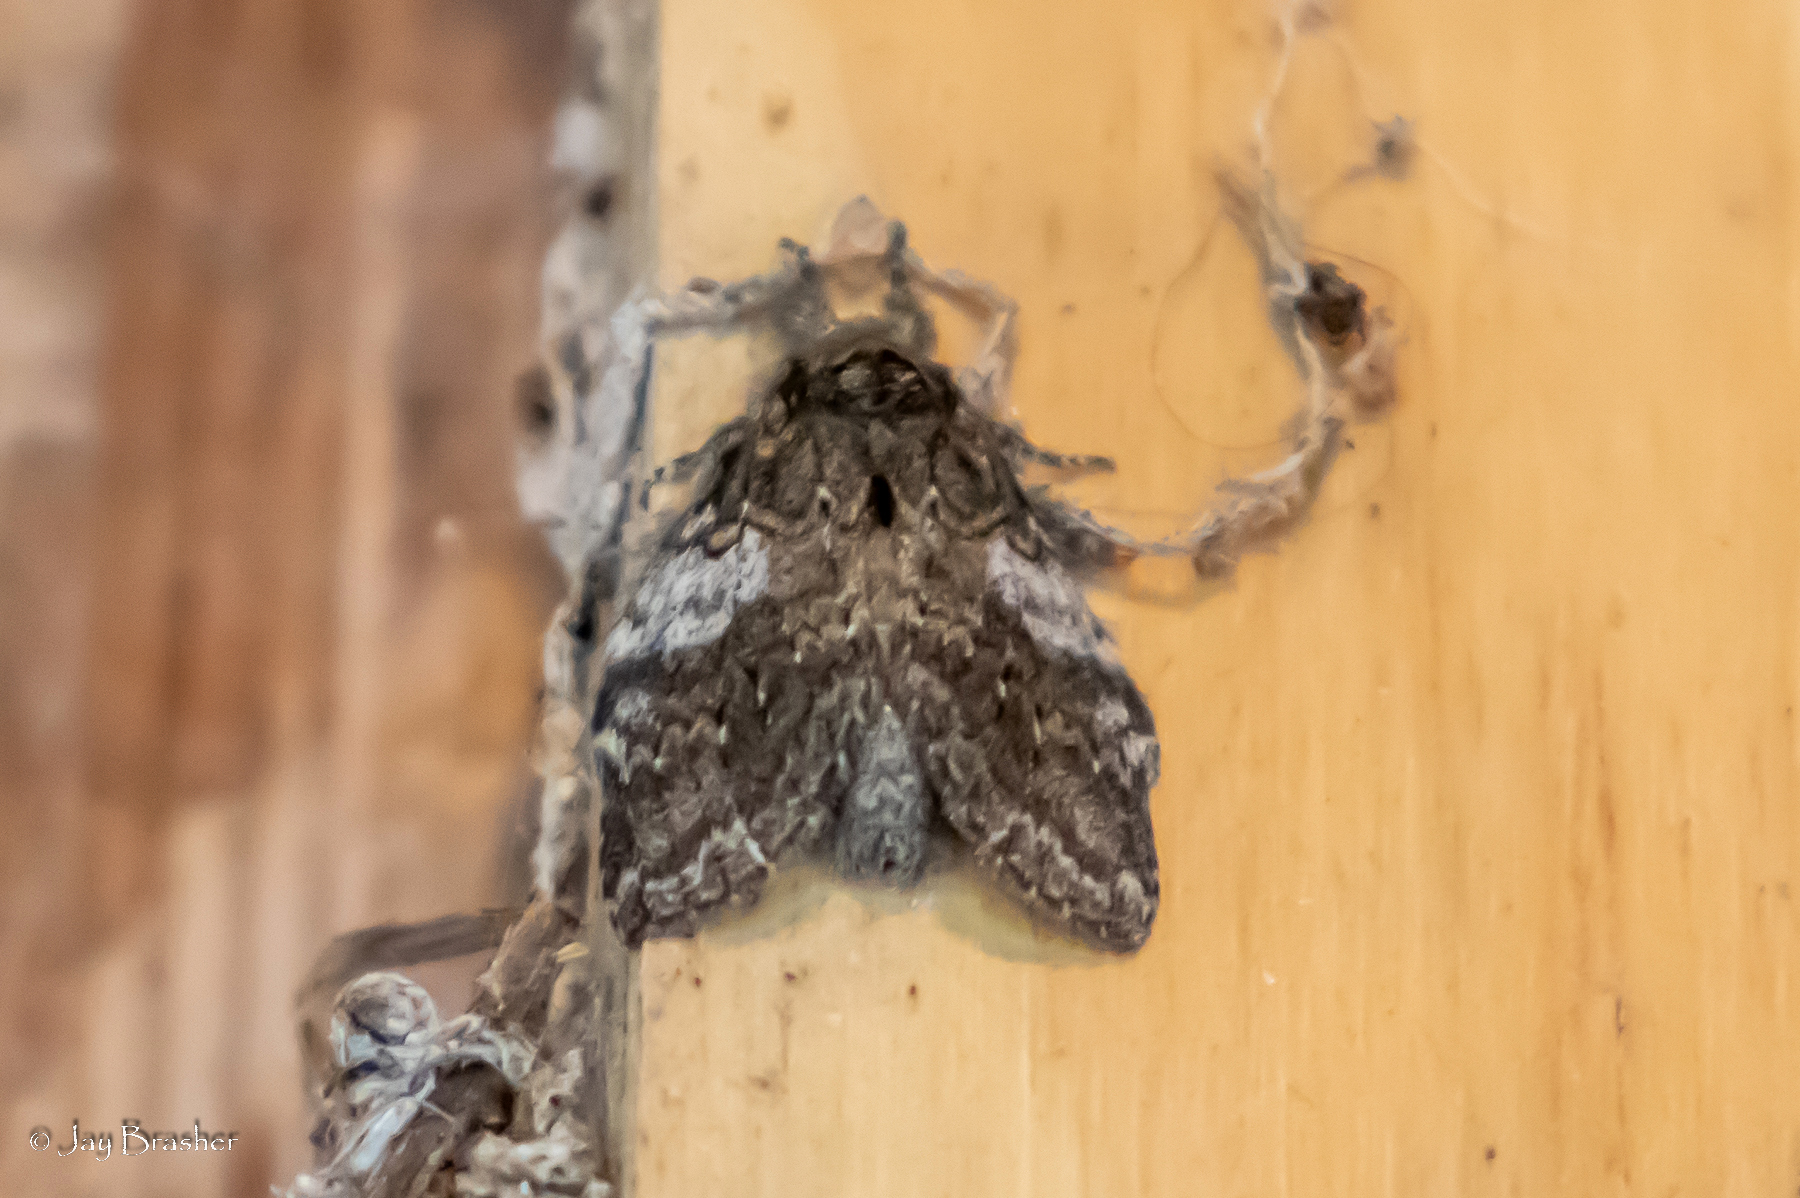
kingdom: Animalia
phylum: Arthropoda
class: Insecta
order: Lepidoptera
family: Notodontidae
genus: Peridea
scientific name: Peridea angulosa
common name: Angulose prominent
